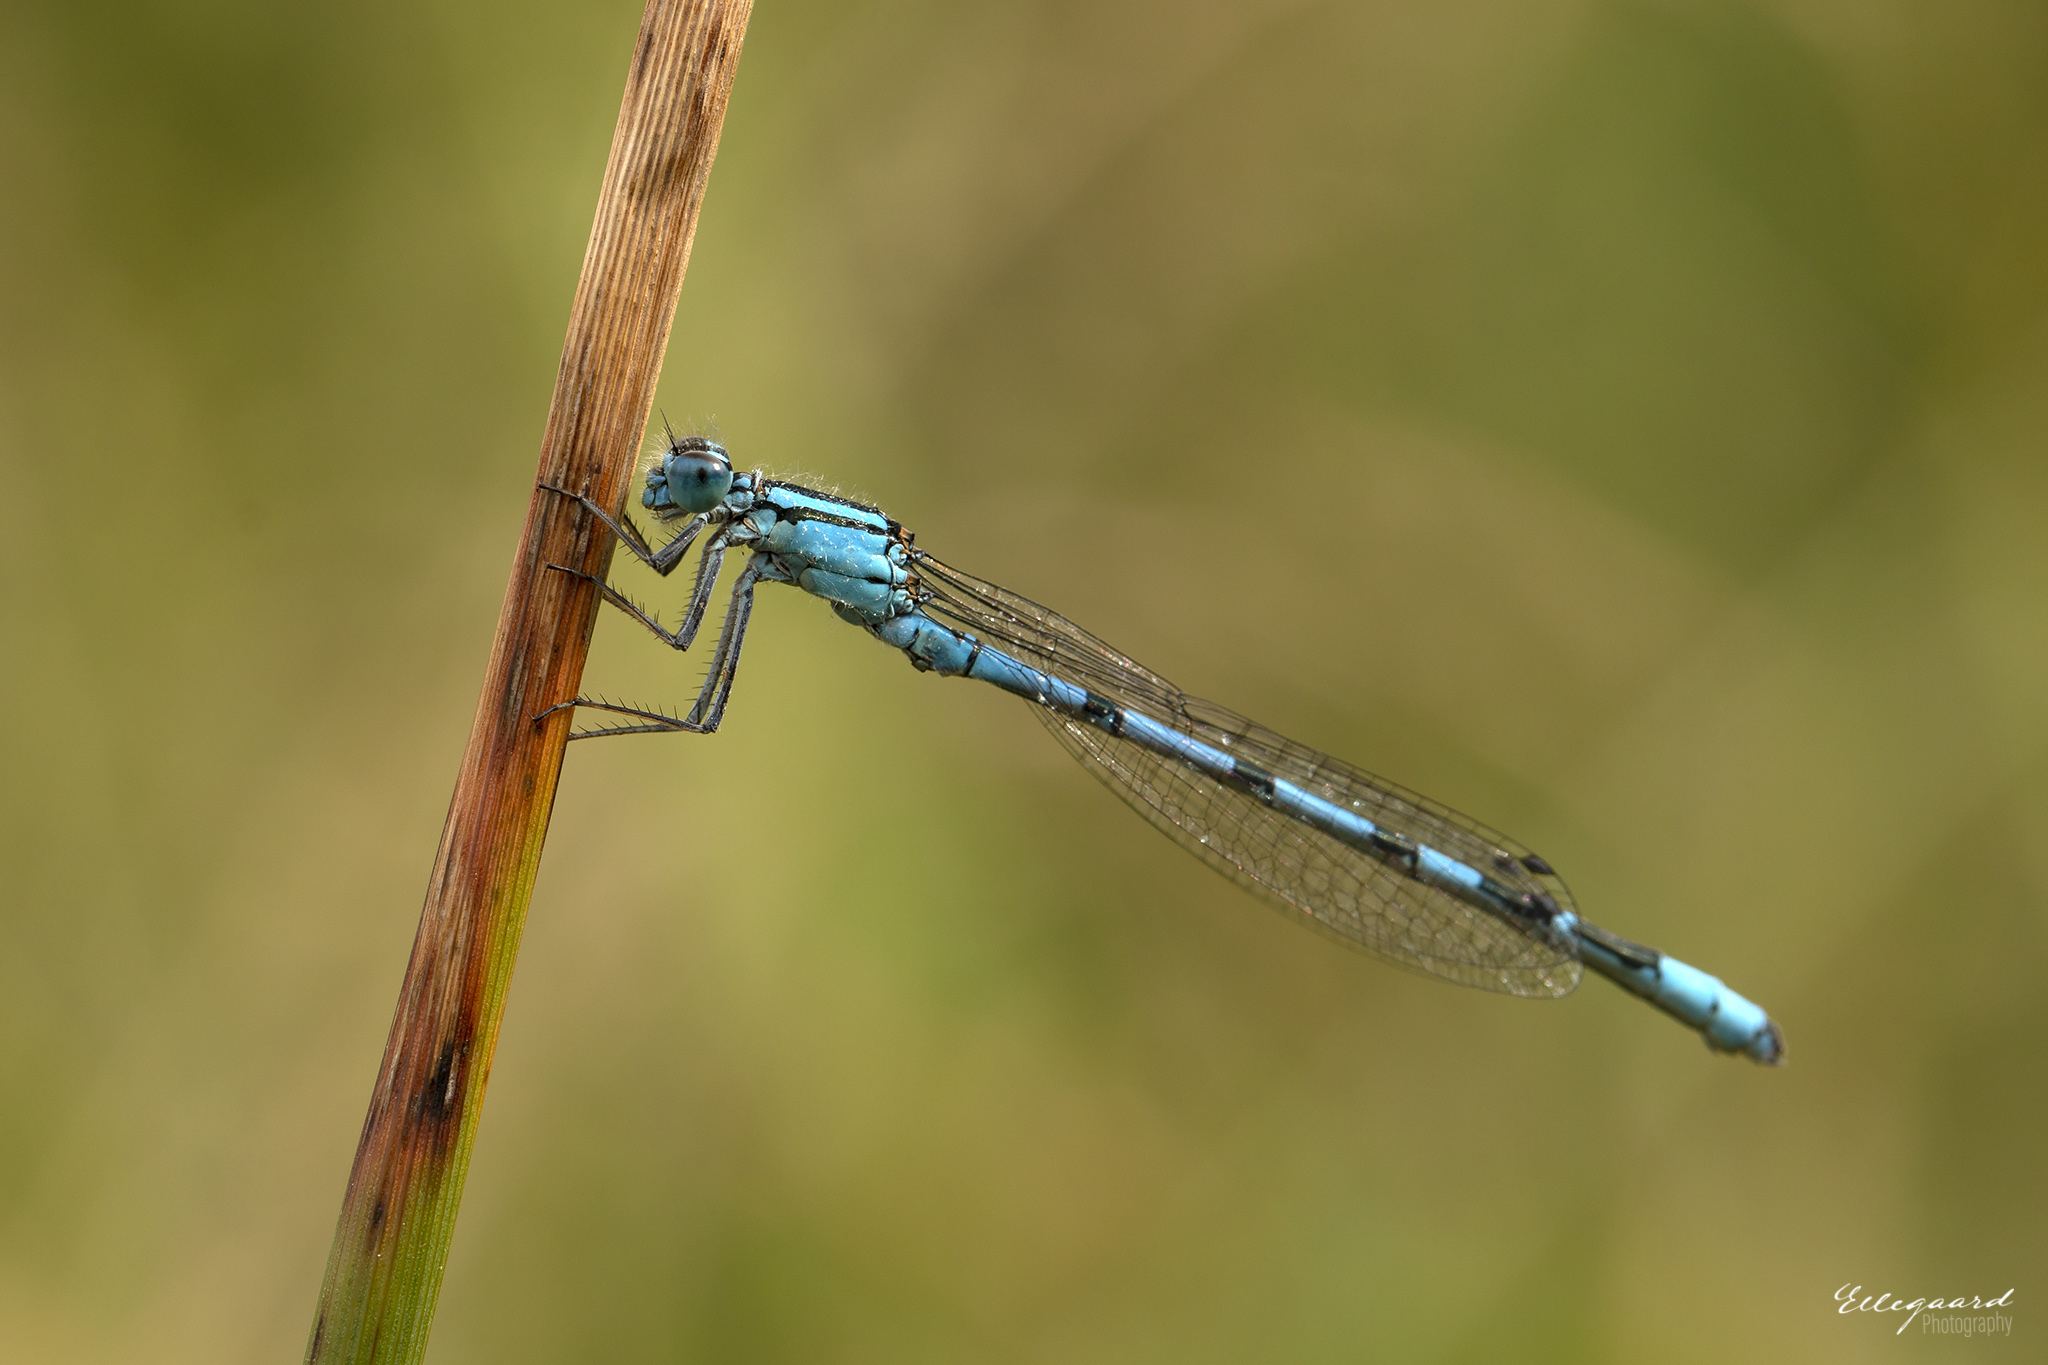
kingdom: Animalia
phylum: Arthropoda
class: Insecta
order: Odonata
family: Coenagrionidae
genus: Enallagma
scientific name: Enallagma cyathigerum
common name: Common blue damselfly
